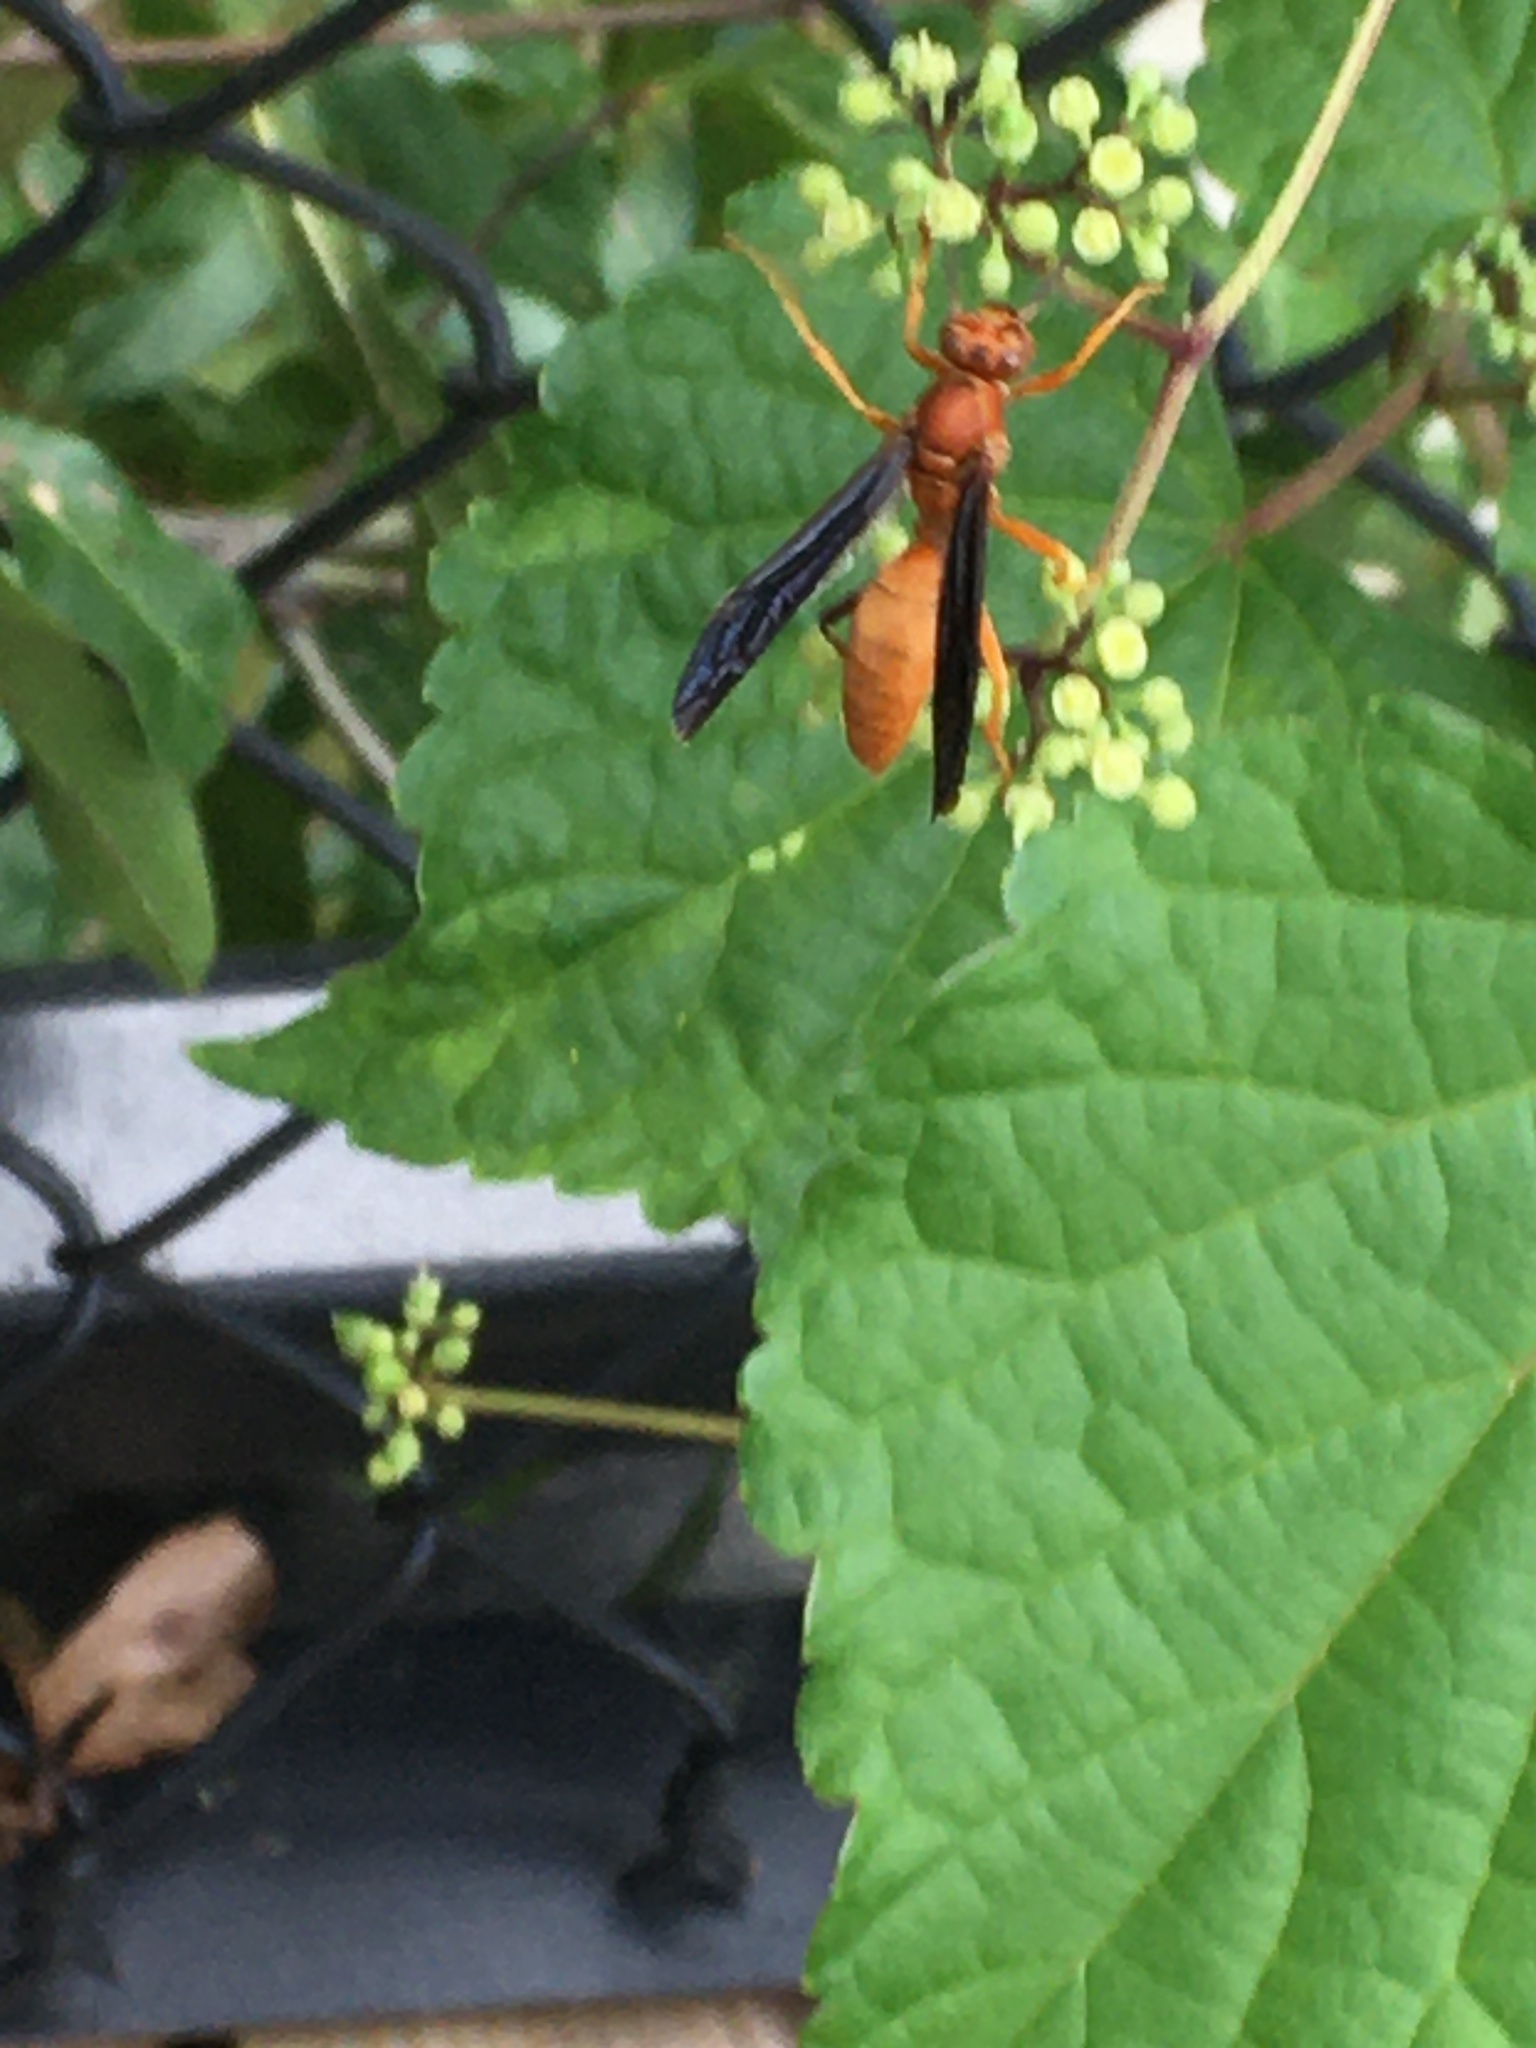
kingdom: Animalia
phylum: Arthropoda
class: Insecta
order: Hymenoptera
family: Vespidae
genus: Fuscopolistes
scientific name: Fuscopolistes
